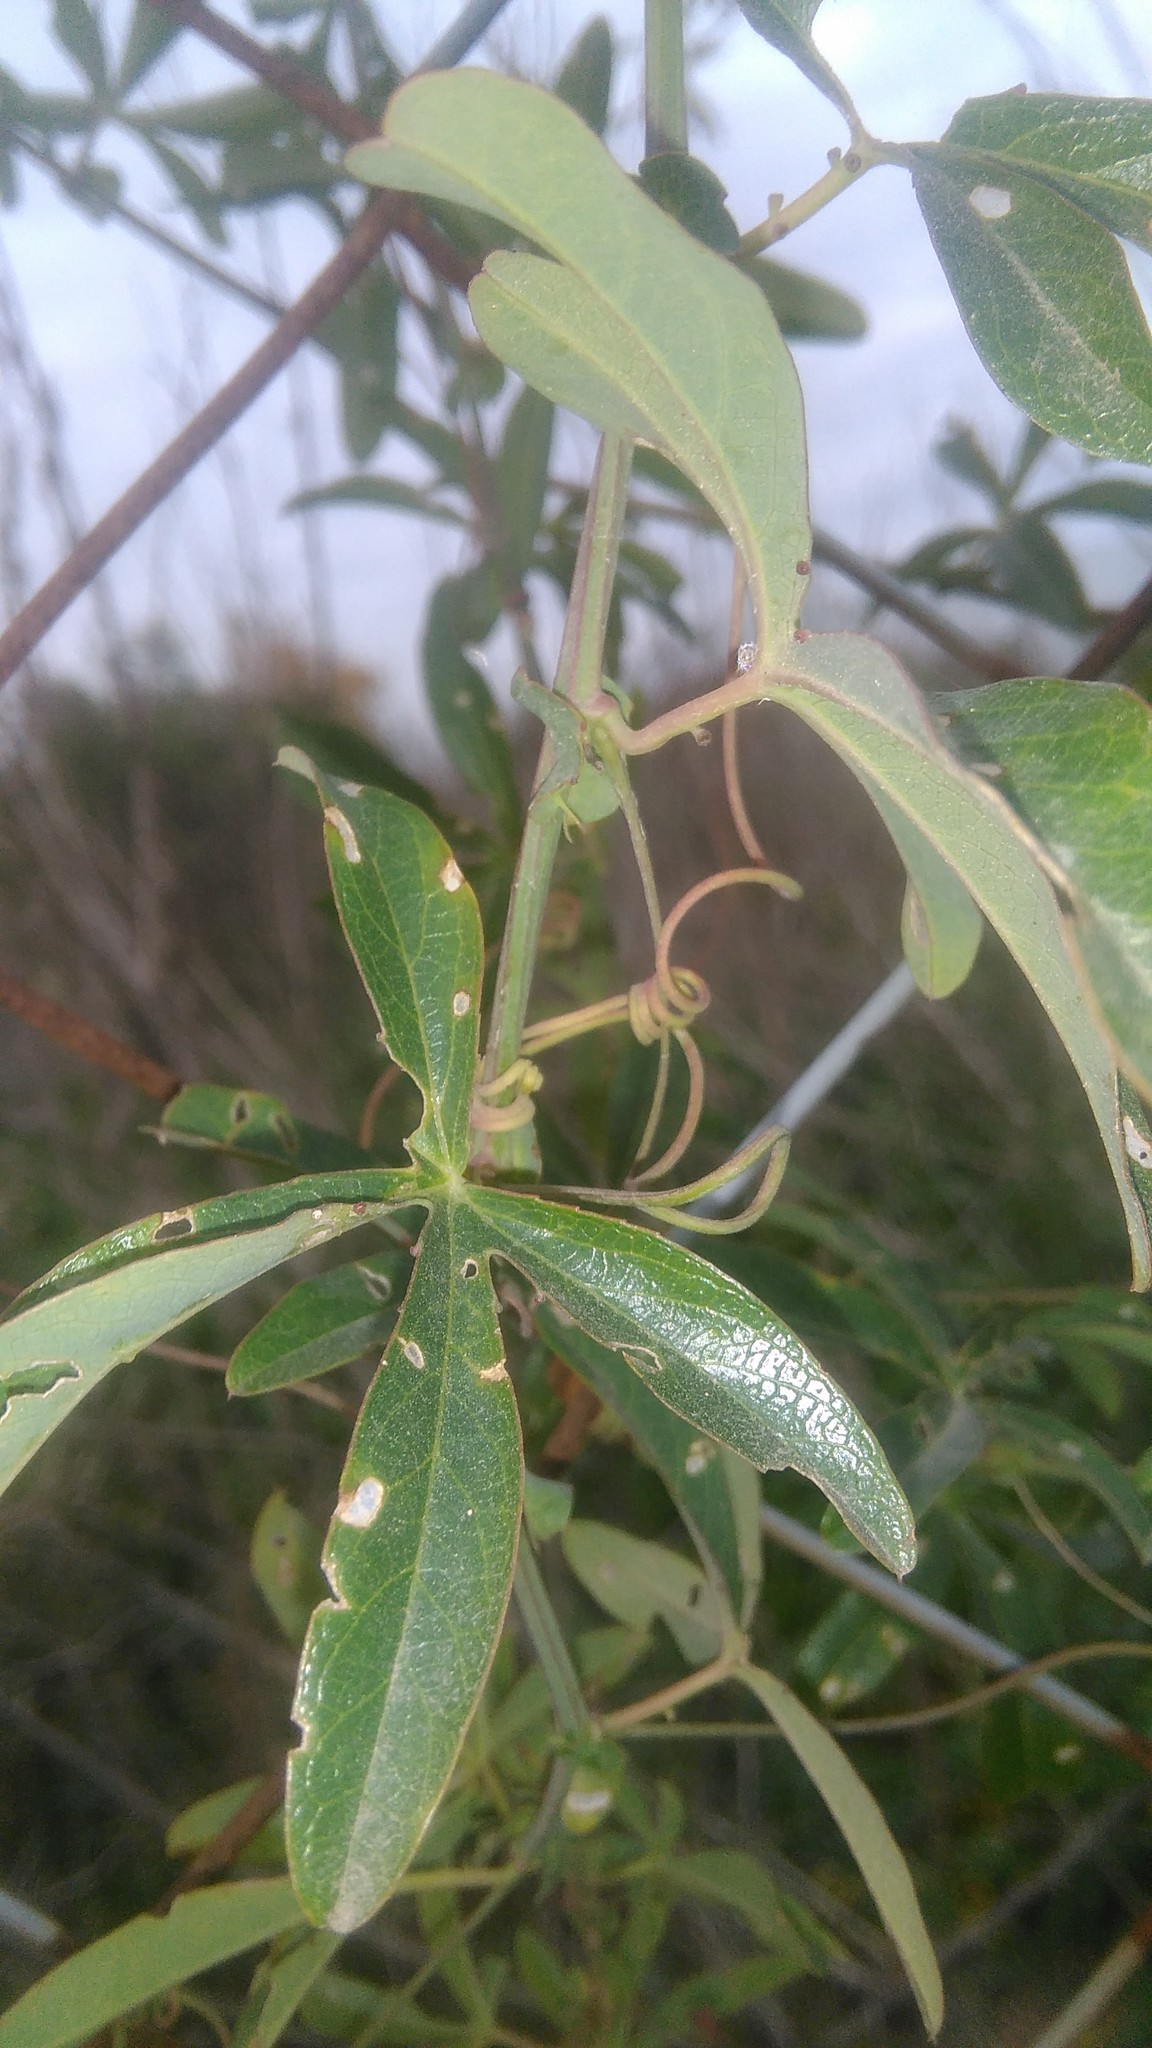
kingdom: Plantae
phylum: Tracheophyta
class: Magnoliopsida
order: Malpighiales
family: Passifloraceae
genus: Passiflora
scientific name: Passiflora caerulea
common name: Blue passionflower
